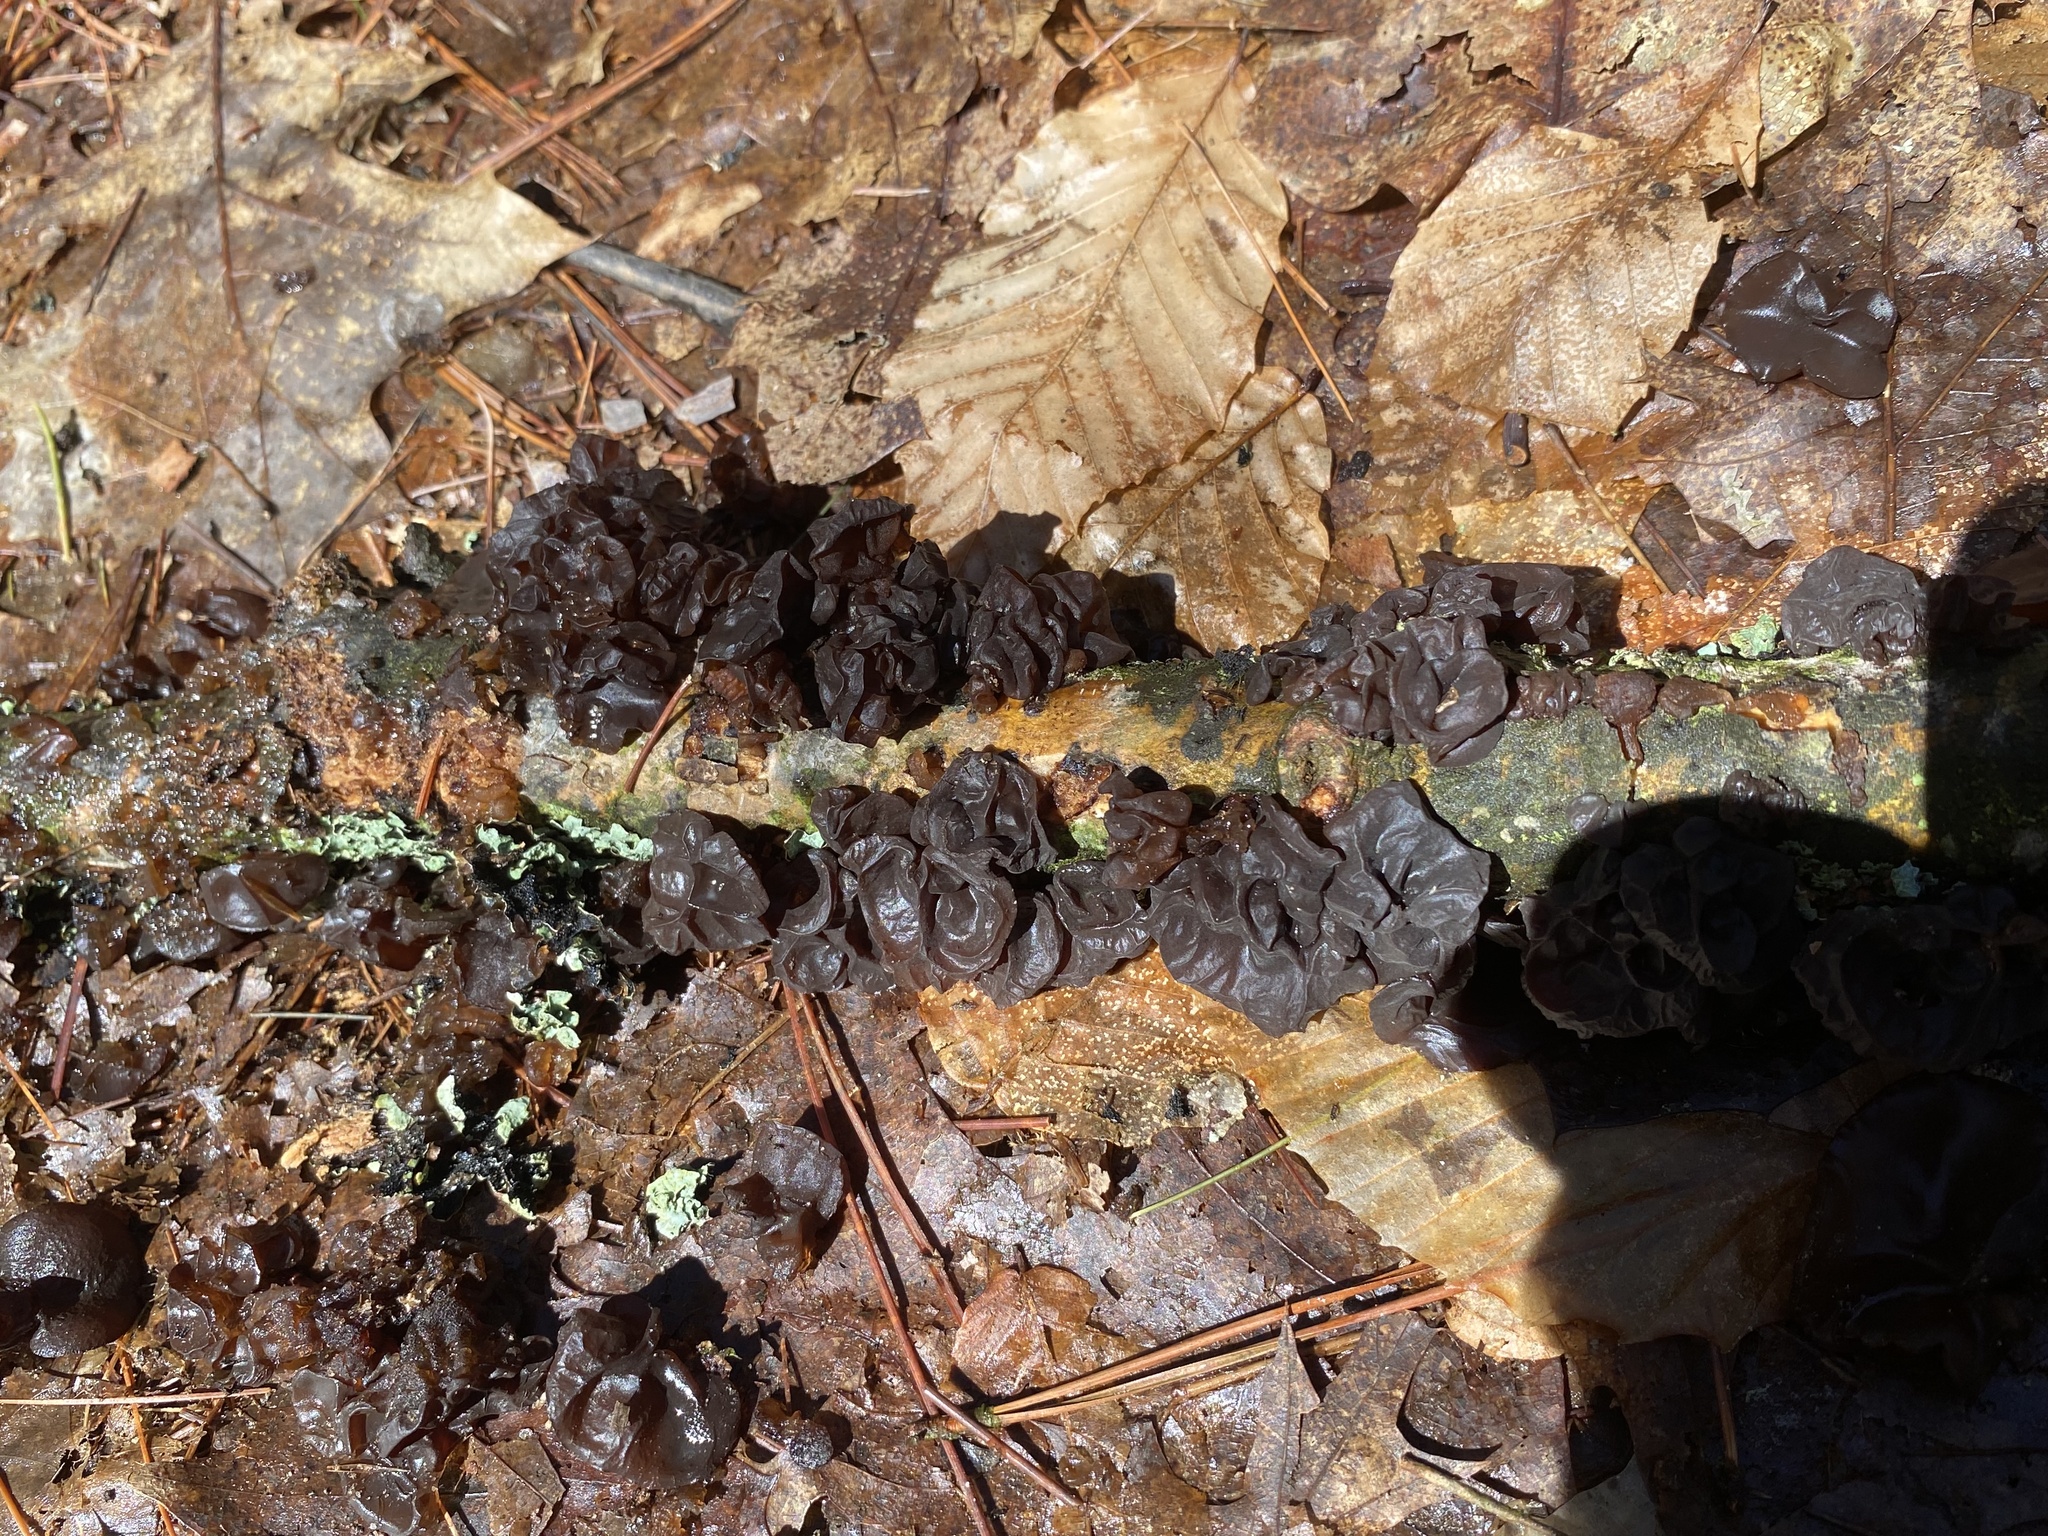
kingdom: Fungi
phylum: Basidiomycota
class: Agaricomycetes
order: Auriculariales
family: Auriculariaceae
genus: Exidia
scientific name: Exidia
